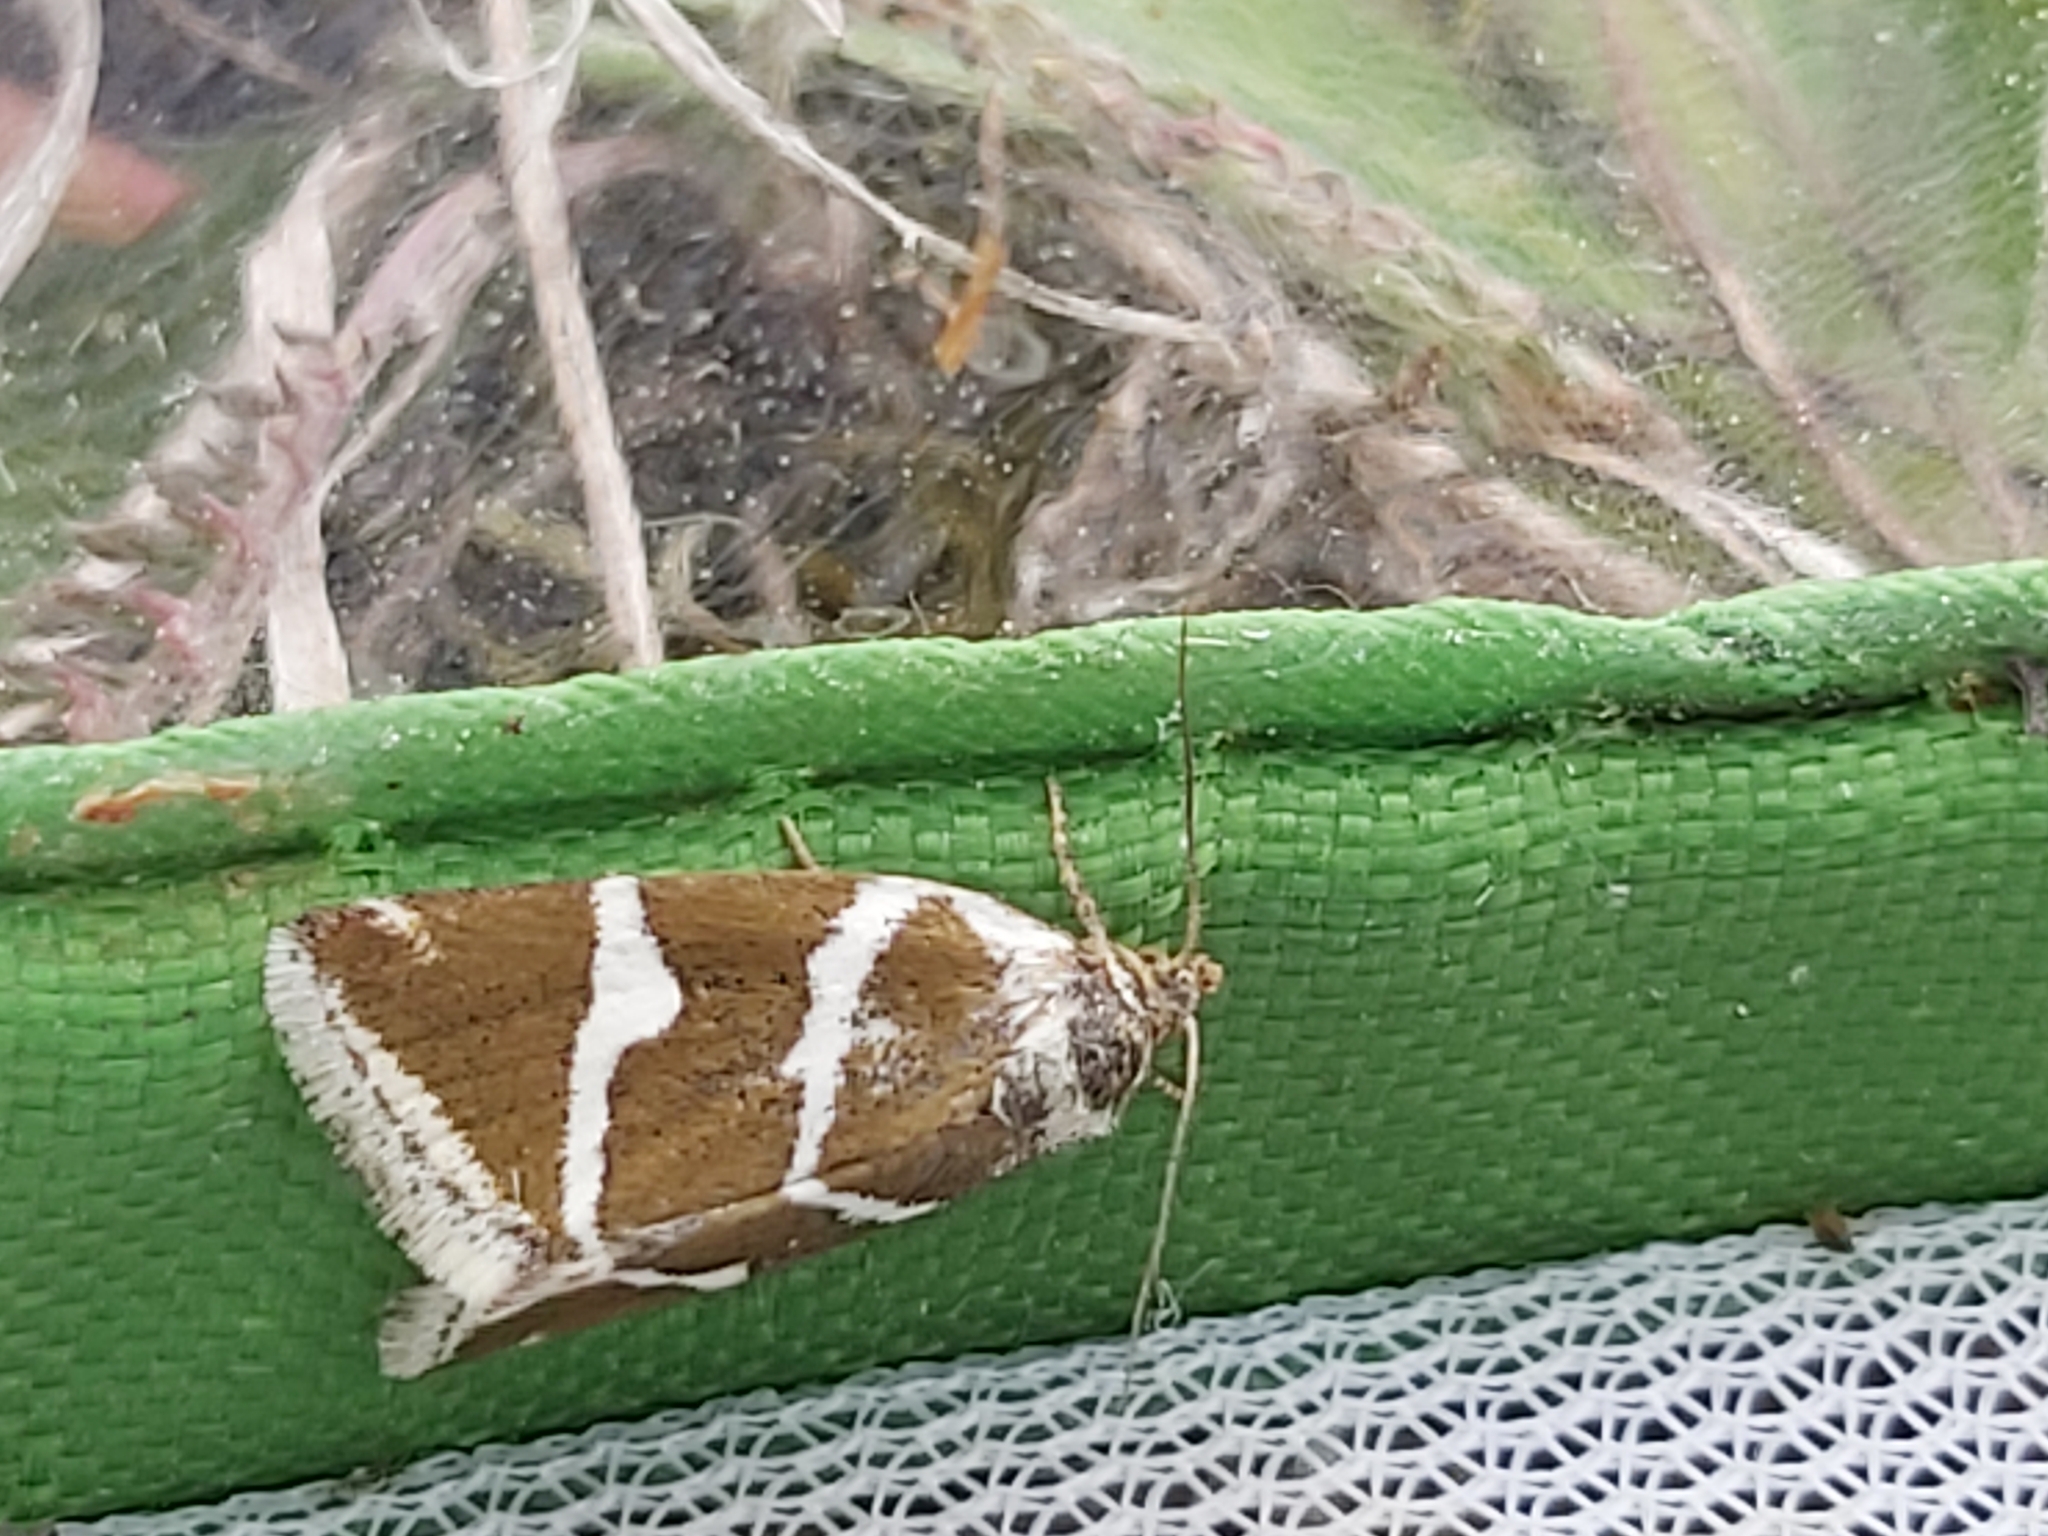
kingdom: Animalia
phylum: Arthropoda
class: Insecta
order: Lepidoptera
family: Noctuidae
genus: Deltote
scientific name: Deltote bankiana
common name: Silver barred
